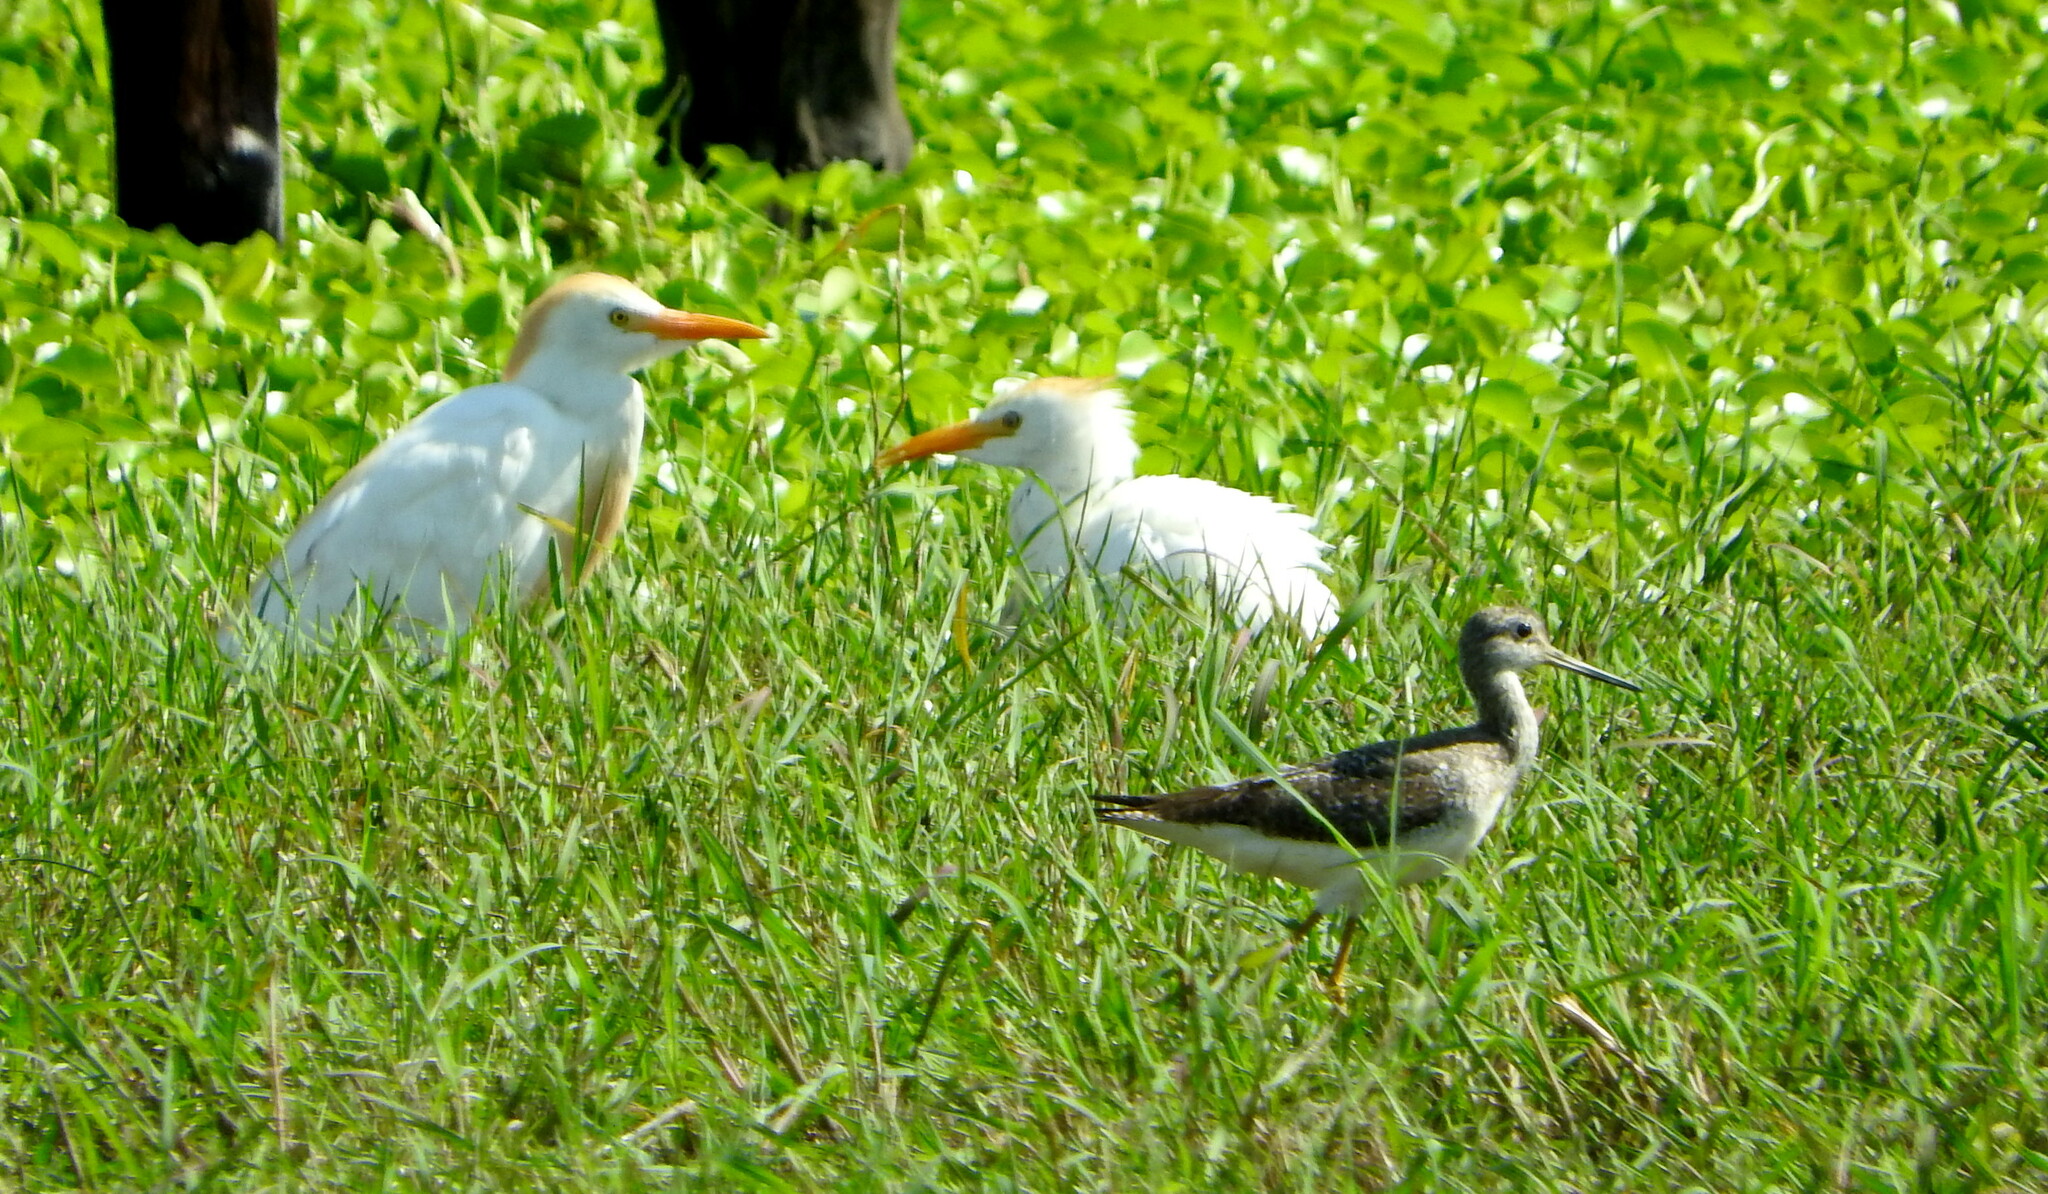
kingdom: Animalia
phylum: Chordata
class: Aves
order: Charadriiformes
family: Scolopacidae
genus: Tringa
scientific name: Tringa melanoleuca
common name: Greater yellowlegs
